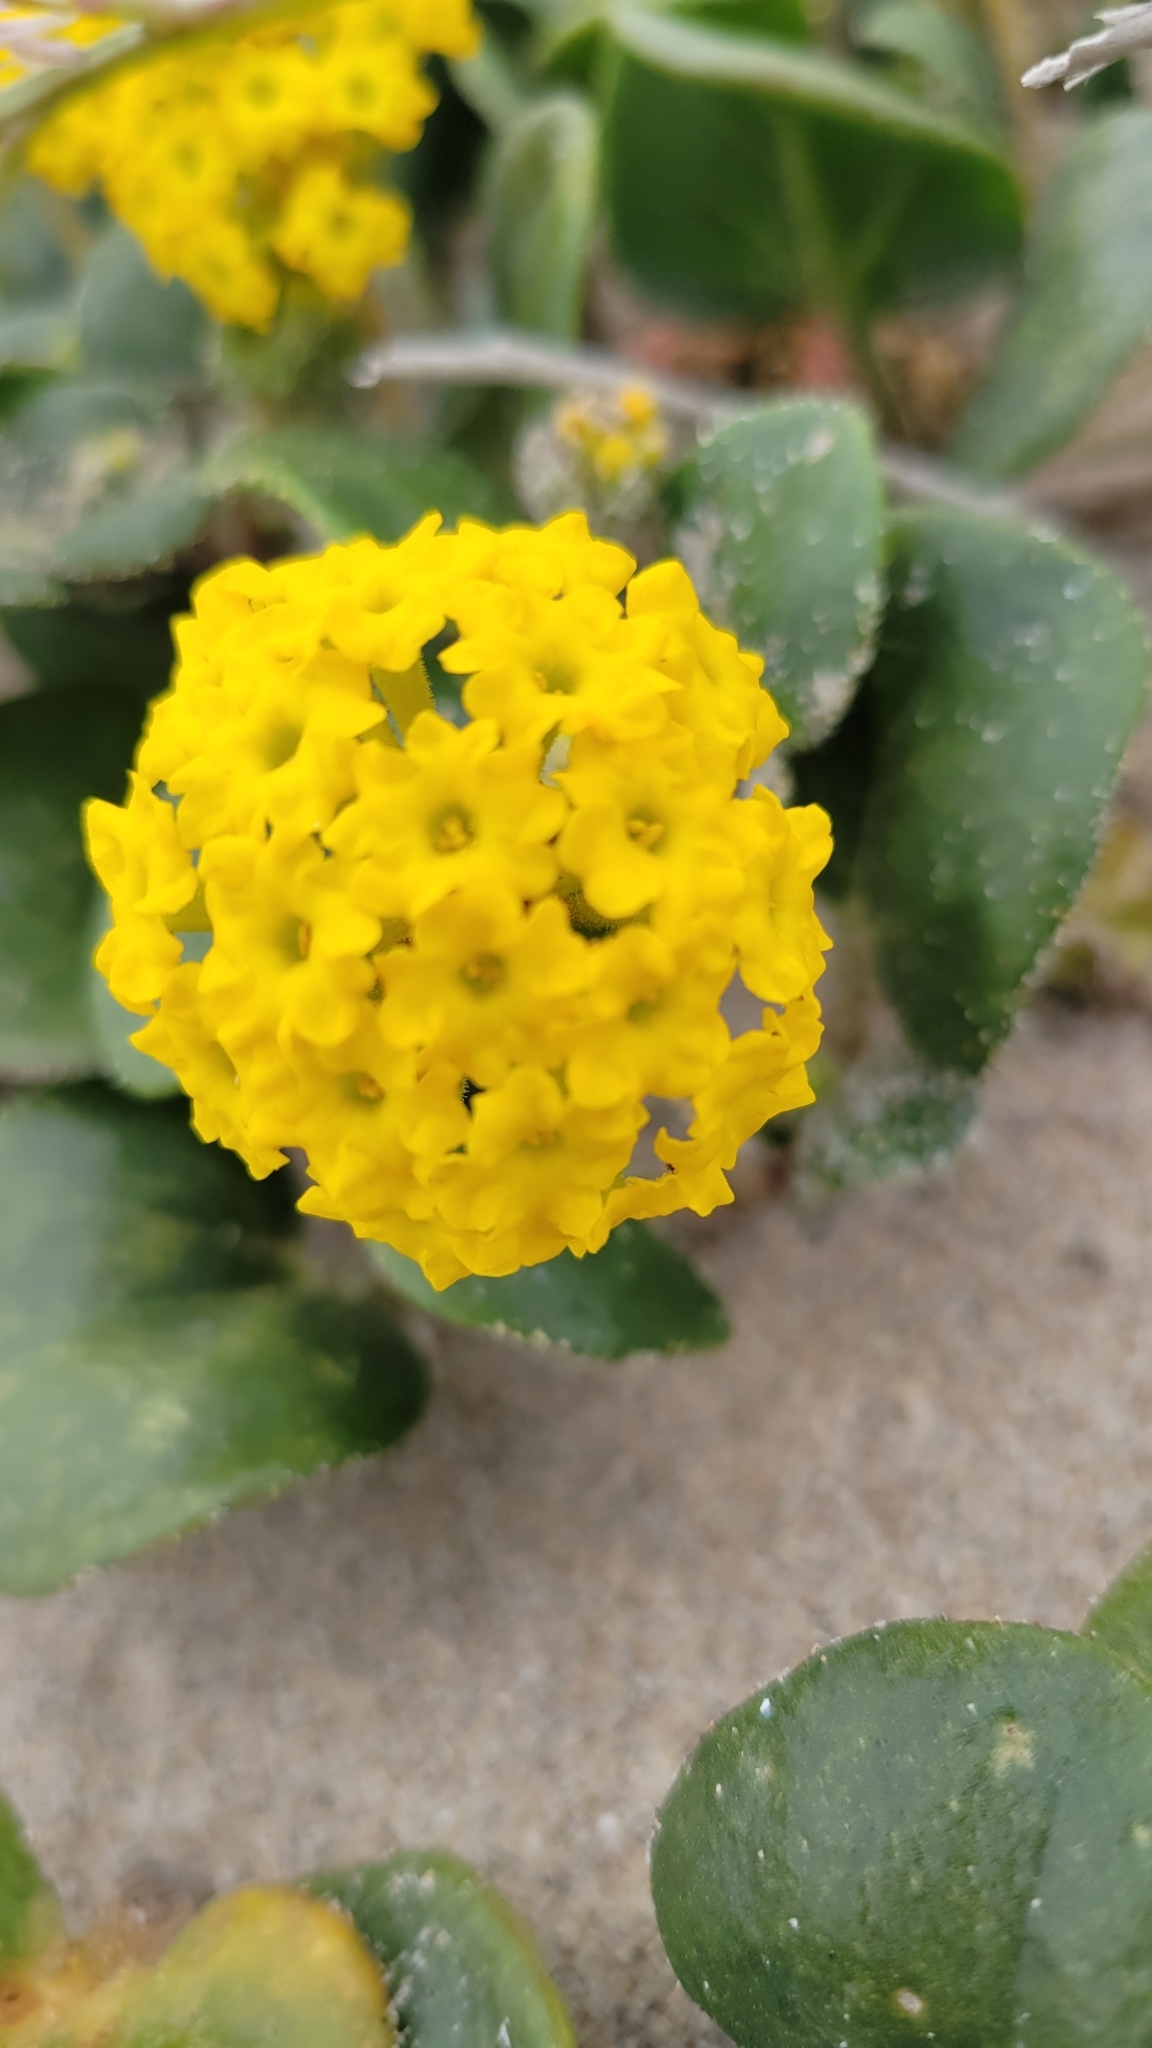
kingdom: Plantae
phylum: Tracheophyta
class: Magnoliopsida
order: Caryophyllales
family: Nyctaginaceae
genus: Abronia
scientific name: Abronia latifolia
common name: Yellow sand-verbena
